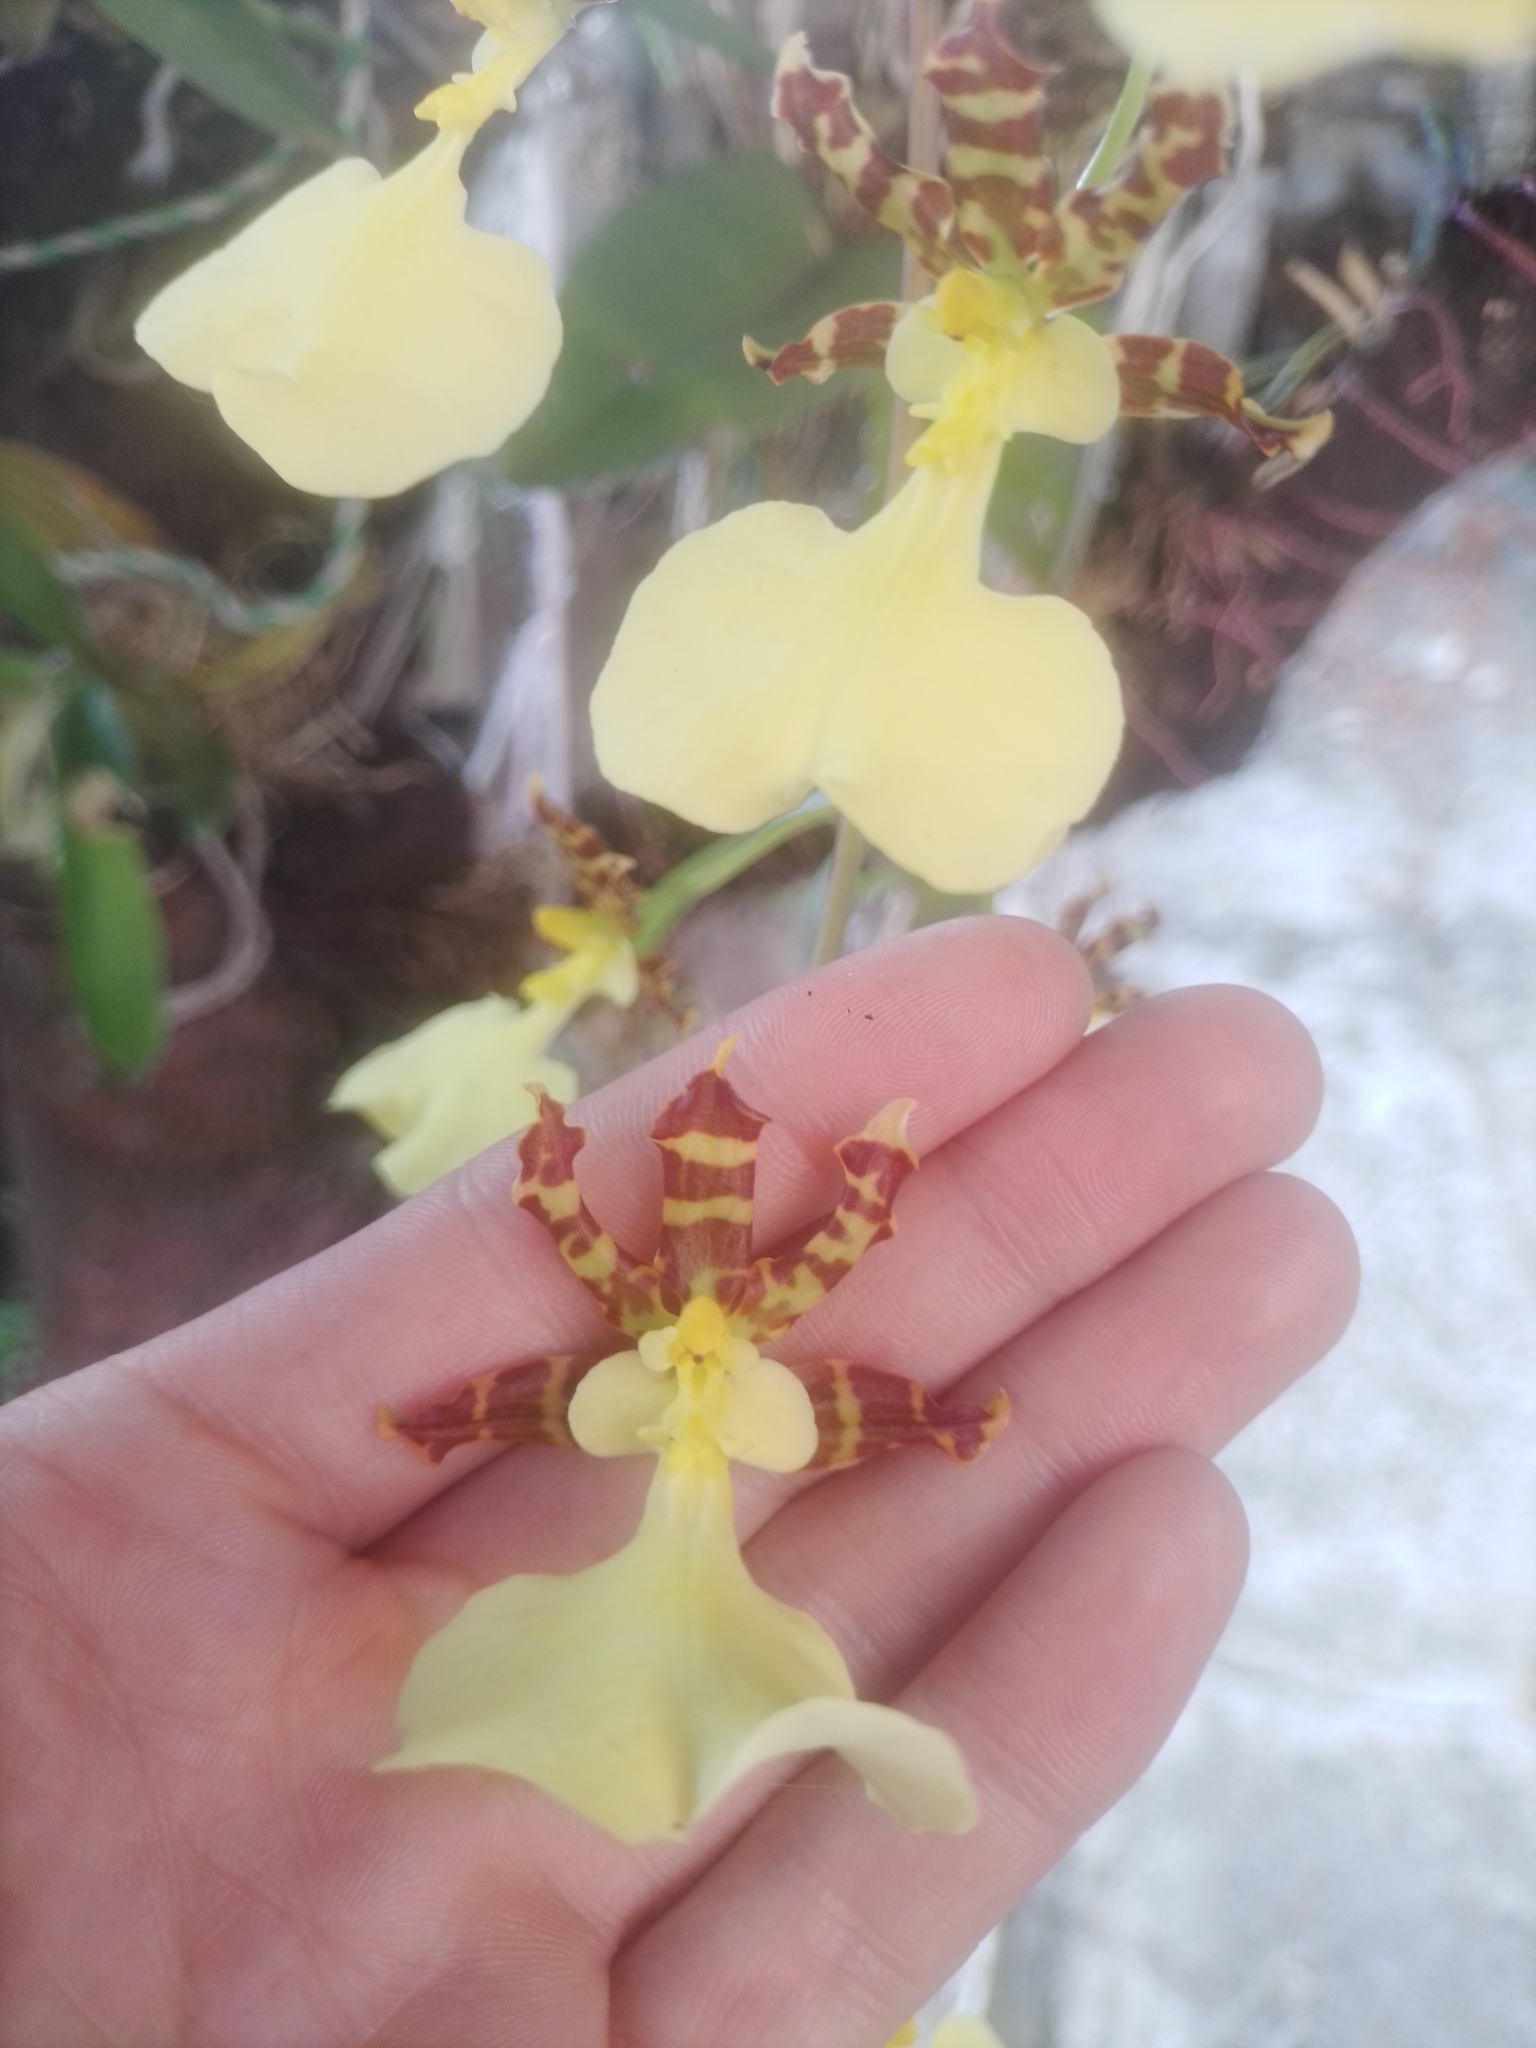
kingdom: Plantae
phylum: Tracheophyta
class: Liliopsida
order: Asparagales
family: Orchidaceae
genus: Oncidium
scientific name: Oncidium tigrinum
